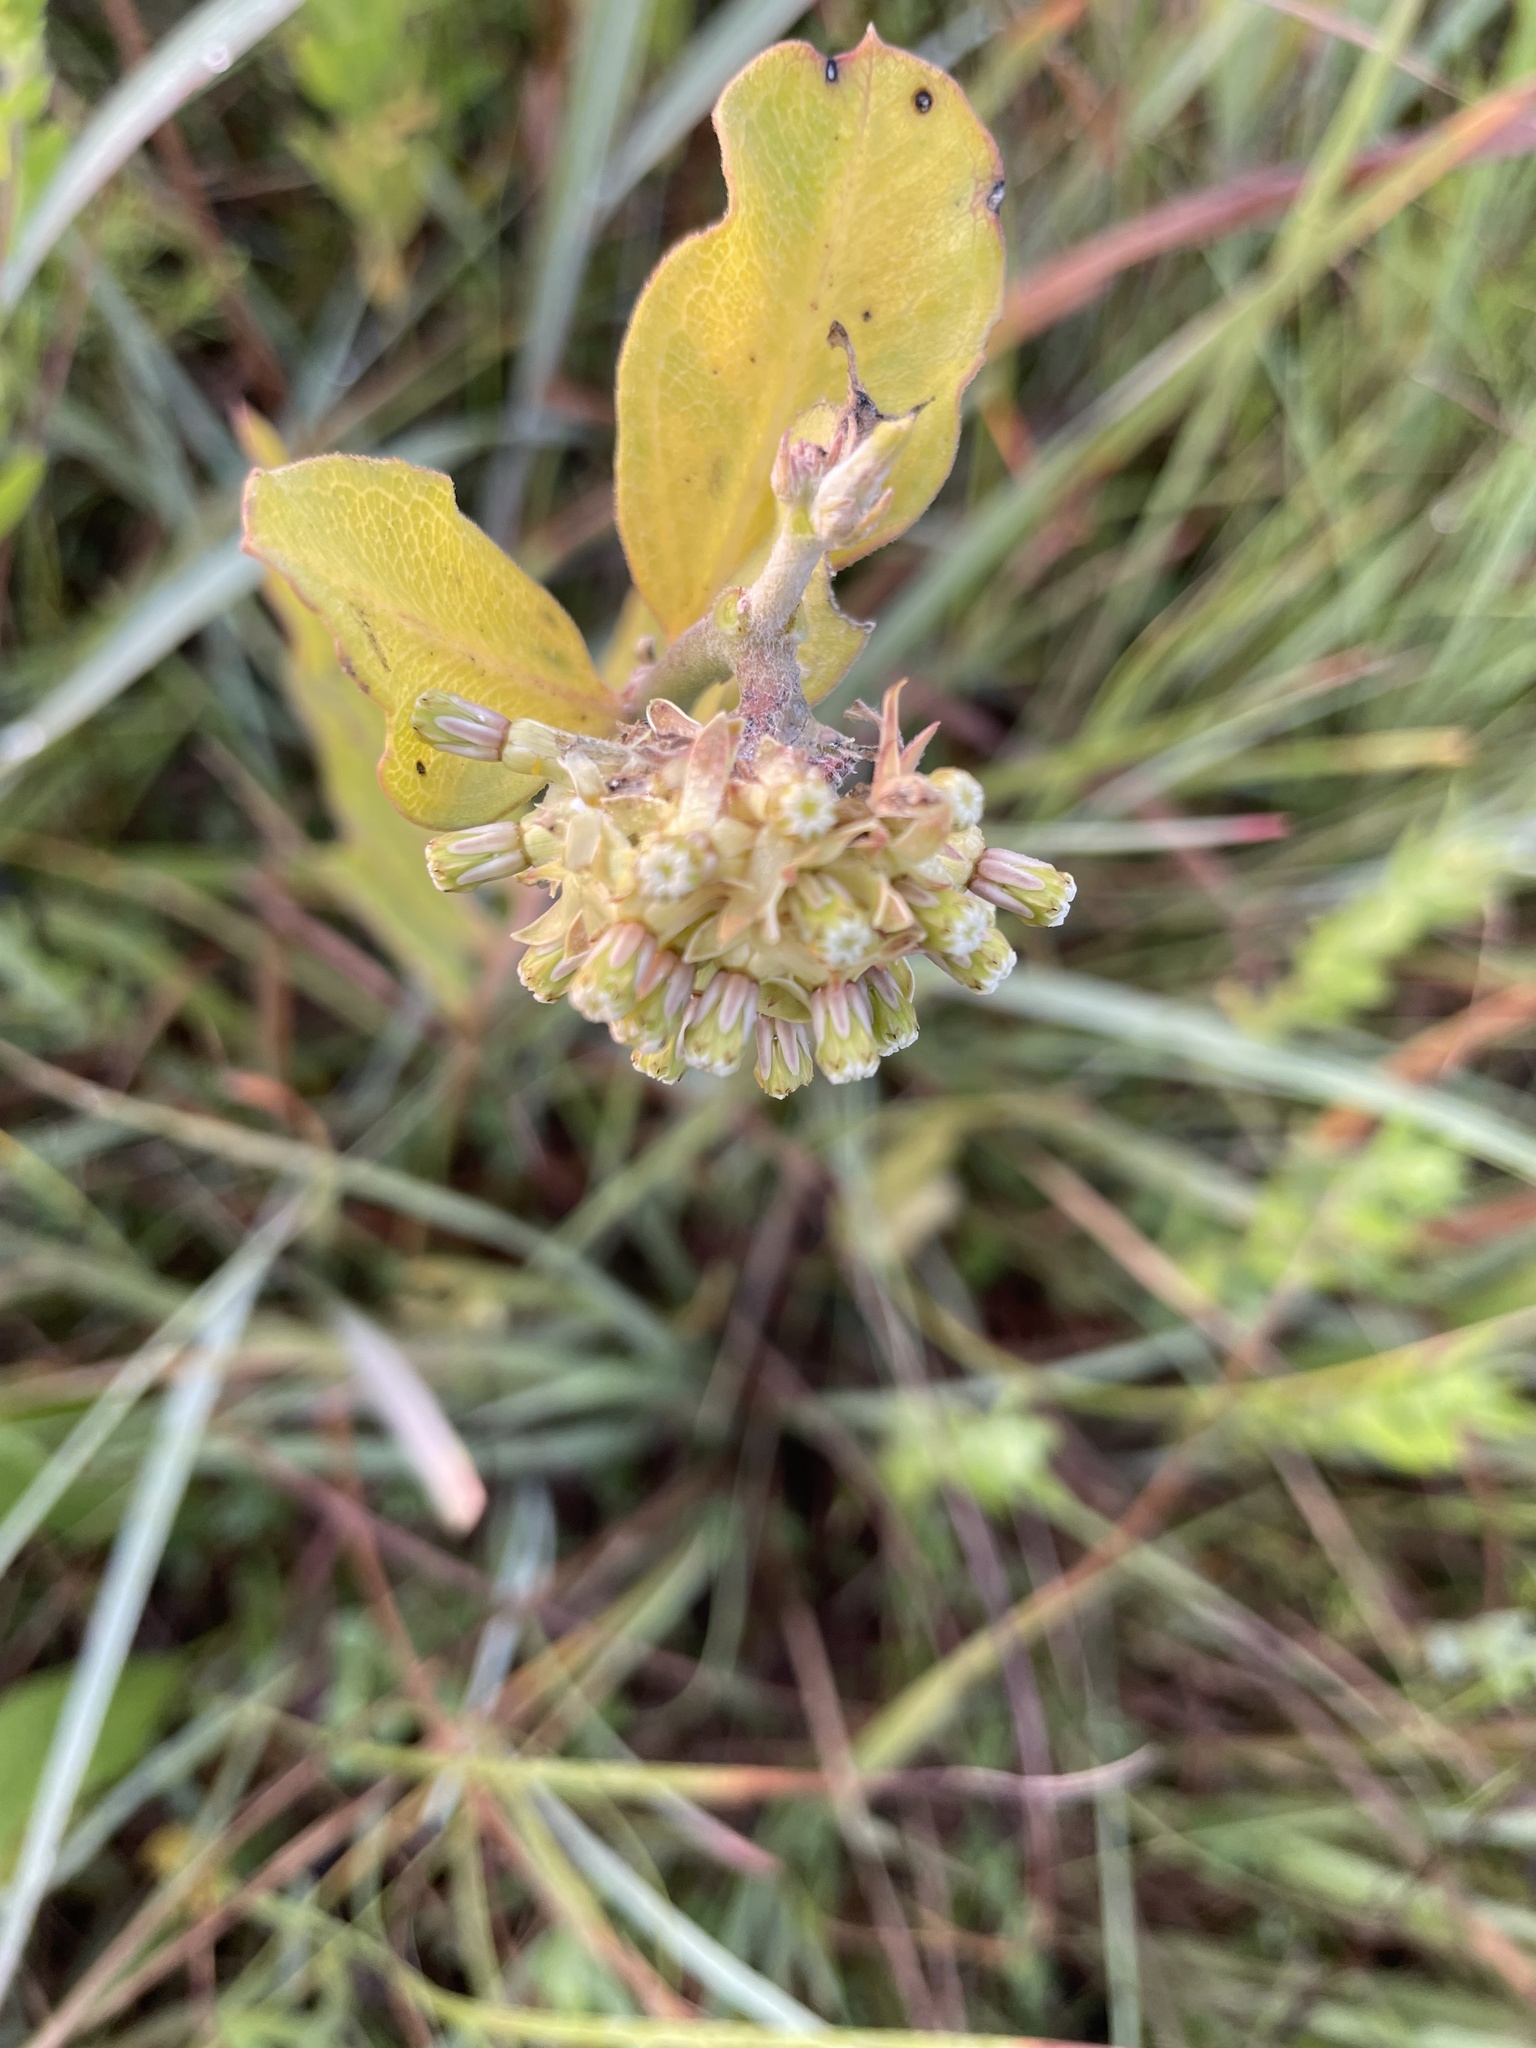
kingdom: Plantae
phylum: Tracheophyta
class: Magnoliopsida
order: Gentianales
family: Apocynaceae
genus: Asclepias
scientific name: Asclepias viridiflora
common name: Green comet milkweed
